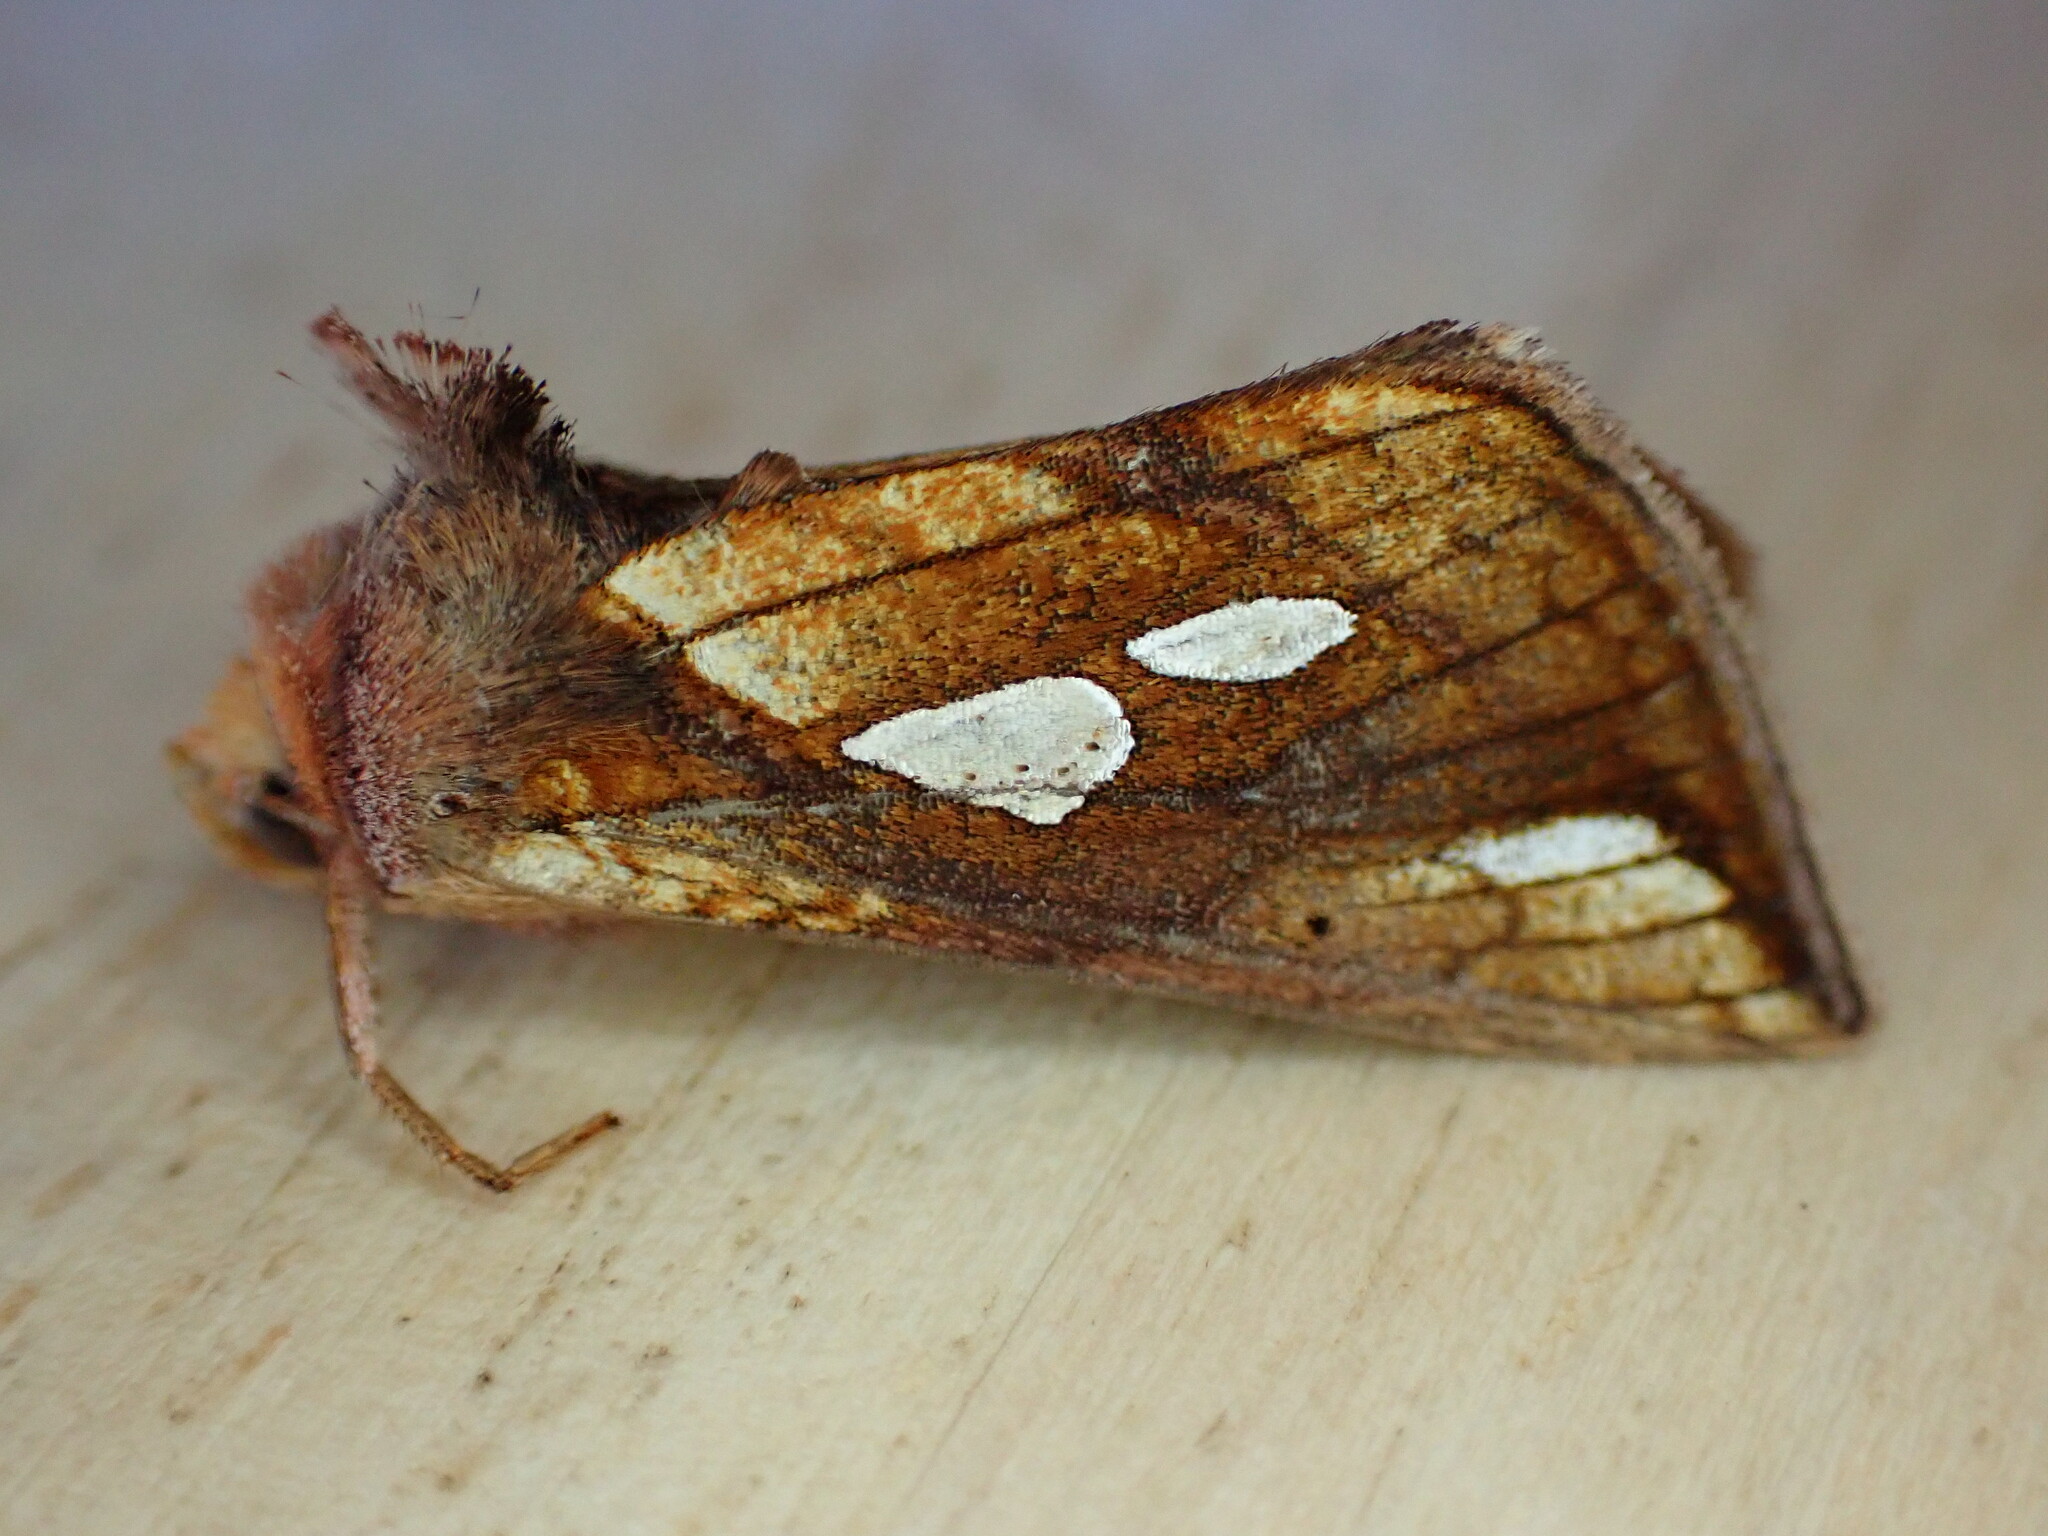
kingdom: Animalia
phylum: Arthropoda
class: Insecta
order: Lepidoptera
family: Noctuidae
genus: Plusia
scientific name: Plusia festucae
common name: Gold spot
